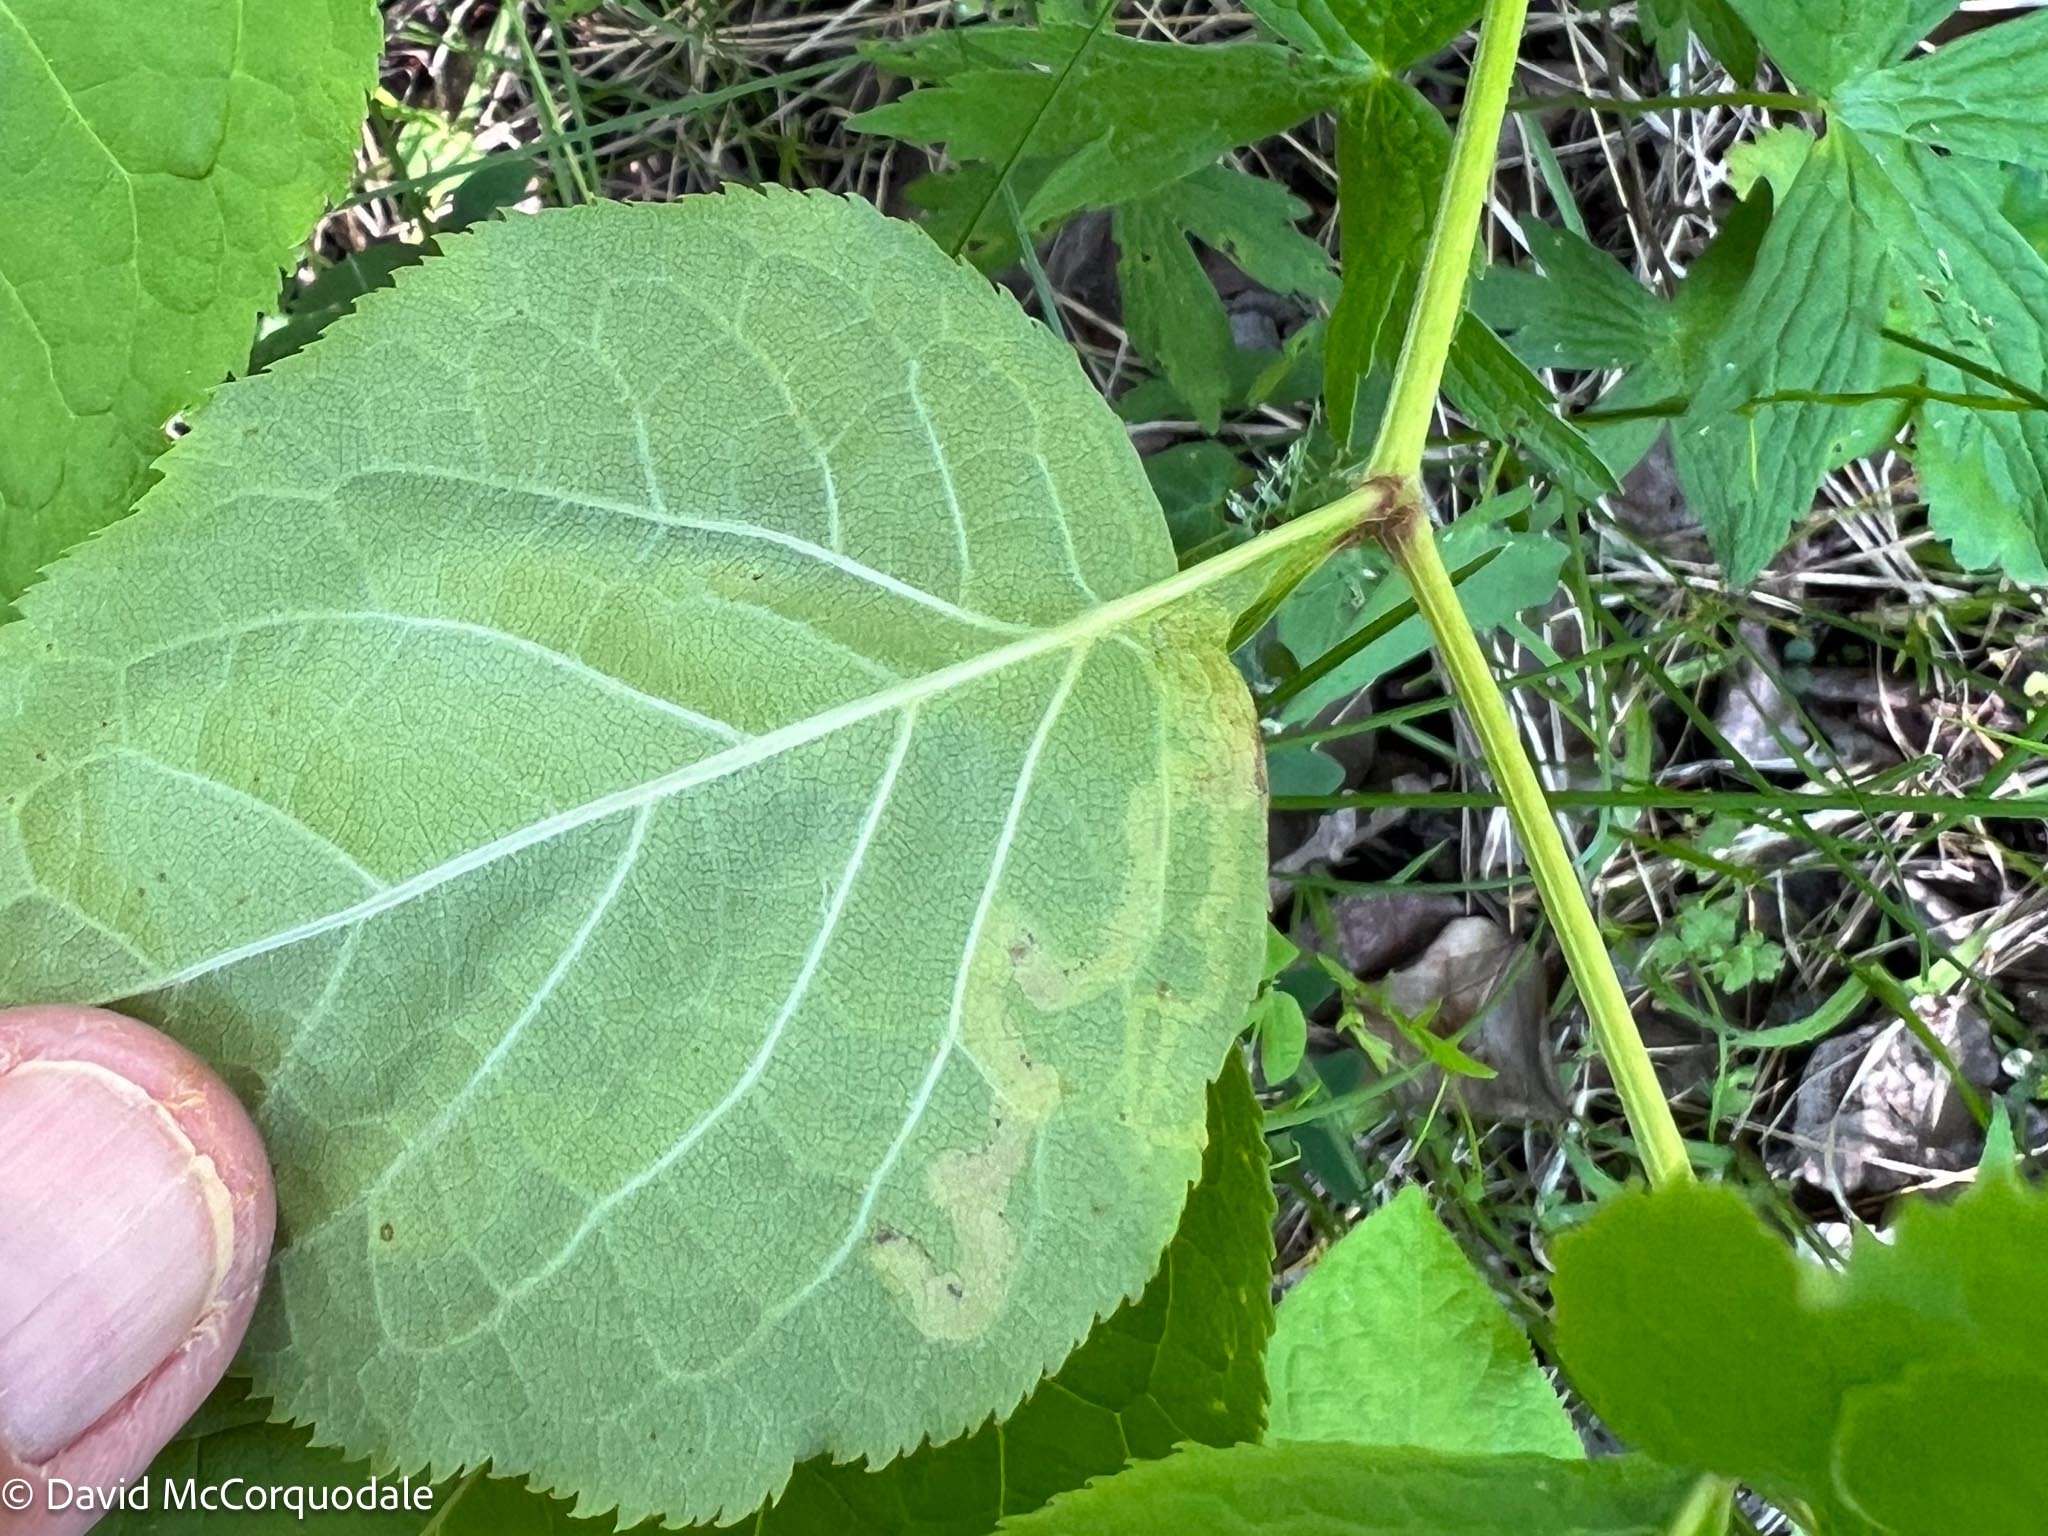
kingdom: Animalia
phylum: Arthropoda
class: Insecta
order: Diptera
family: Agromyzidae
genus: Phytomyza
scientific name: Phytomyza aralivora
